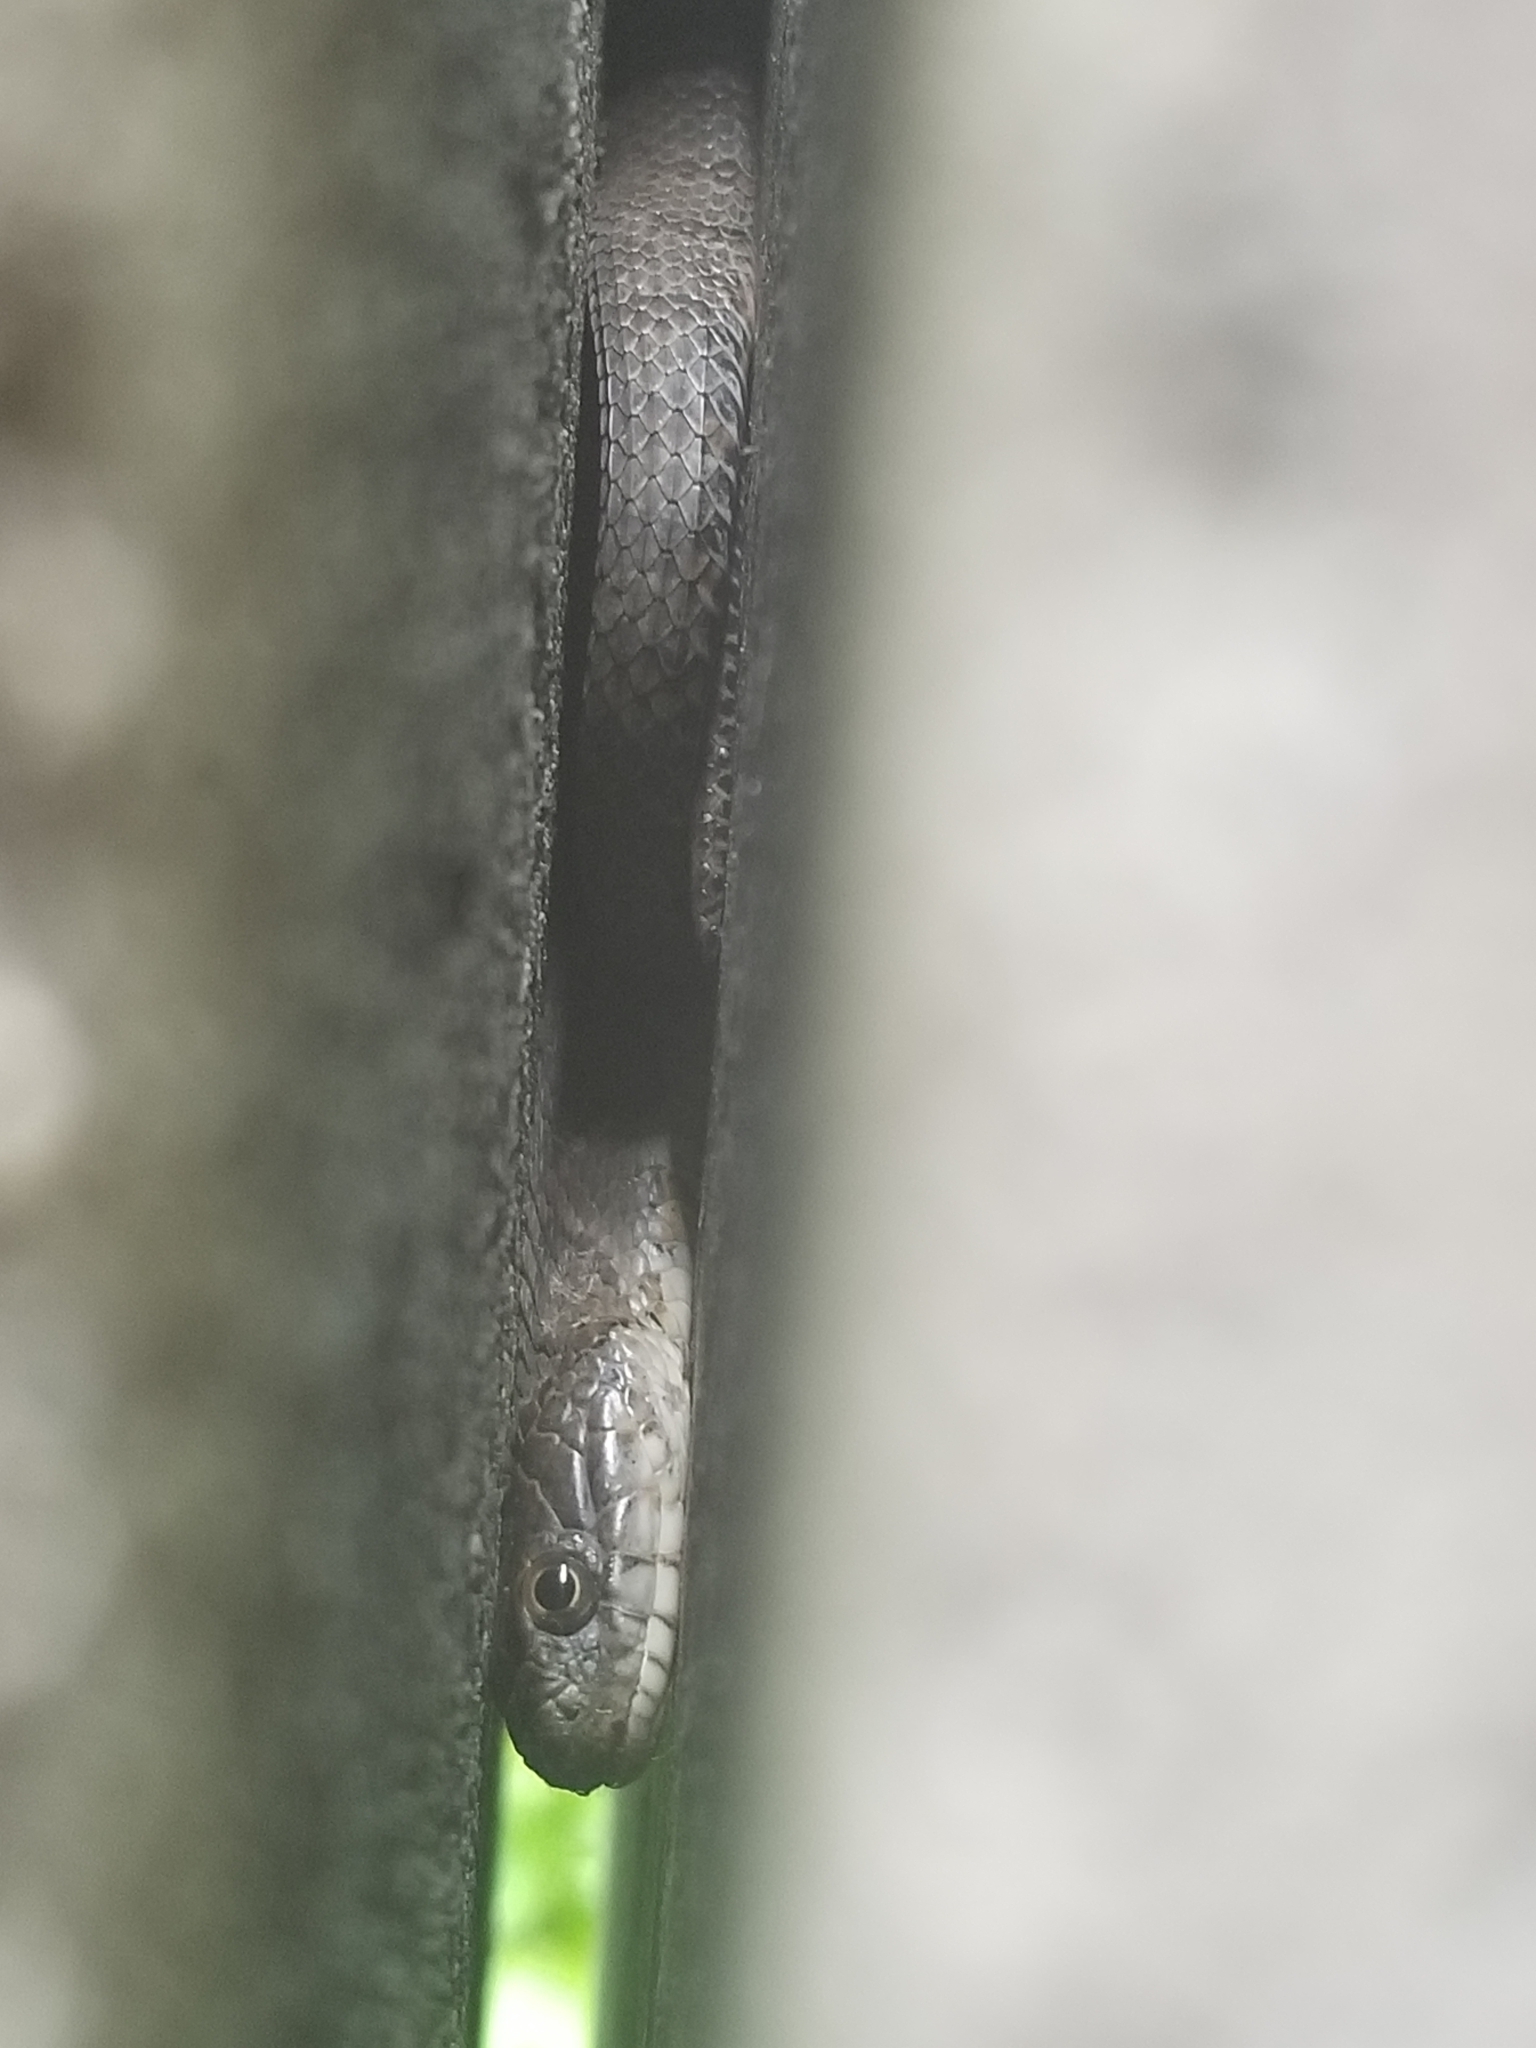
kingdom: Animalia
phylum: Chordata
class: Squamata
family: Colubridae
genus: Nerodia
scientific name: Nerodia sipedon
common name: Northern water snake
